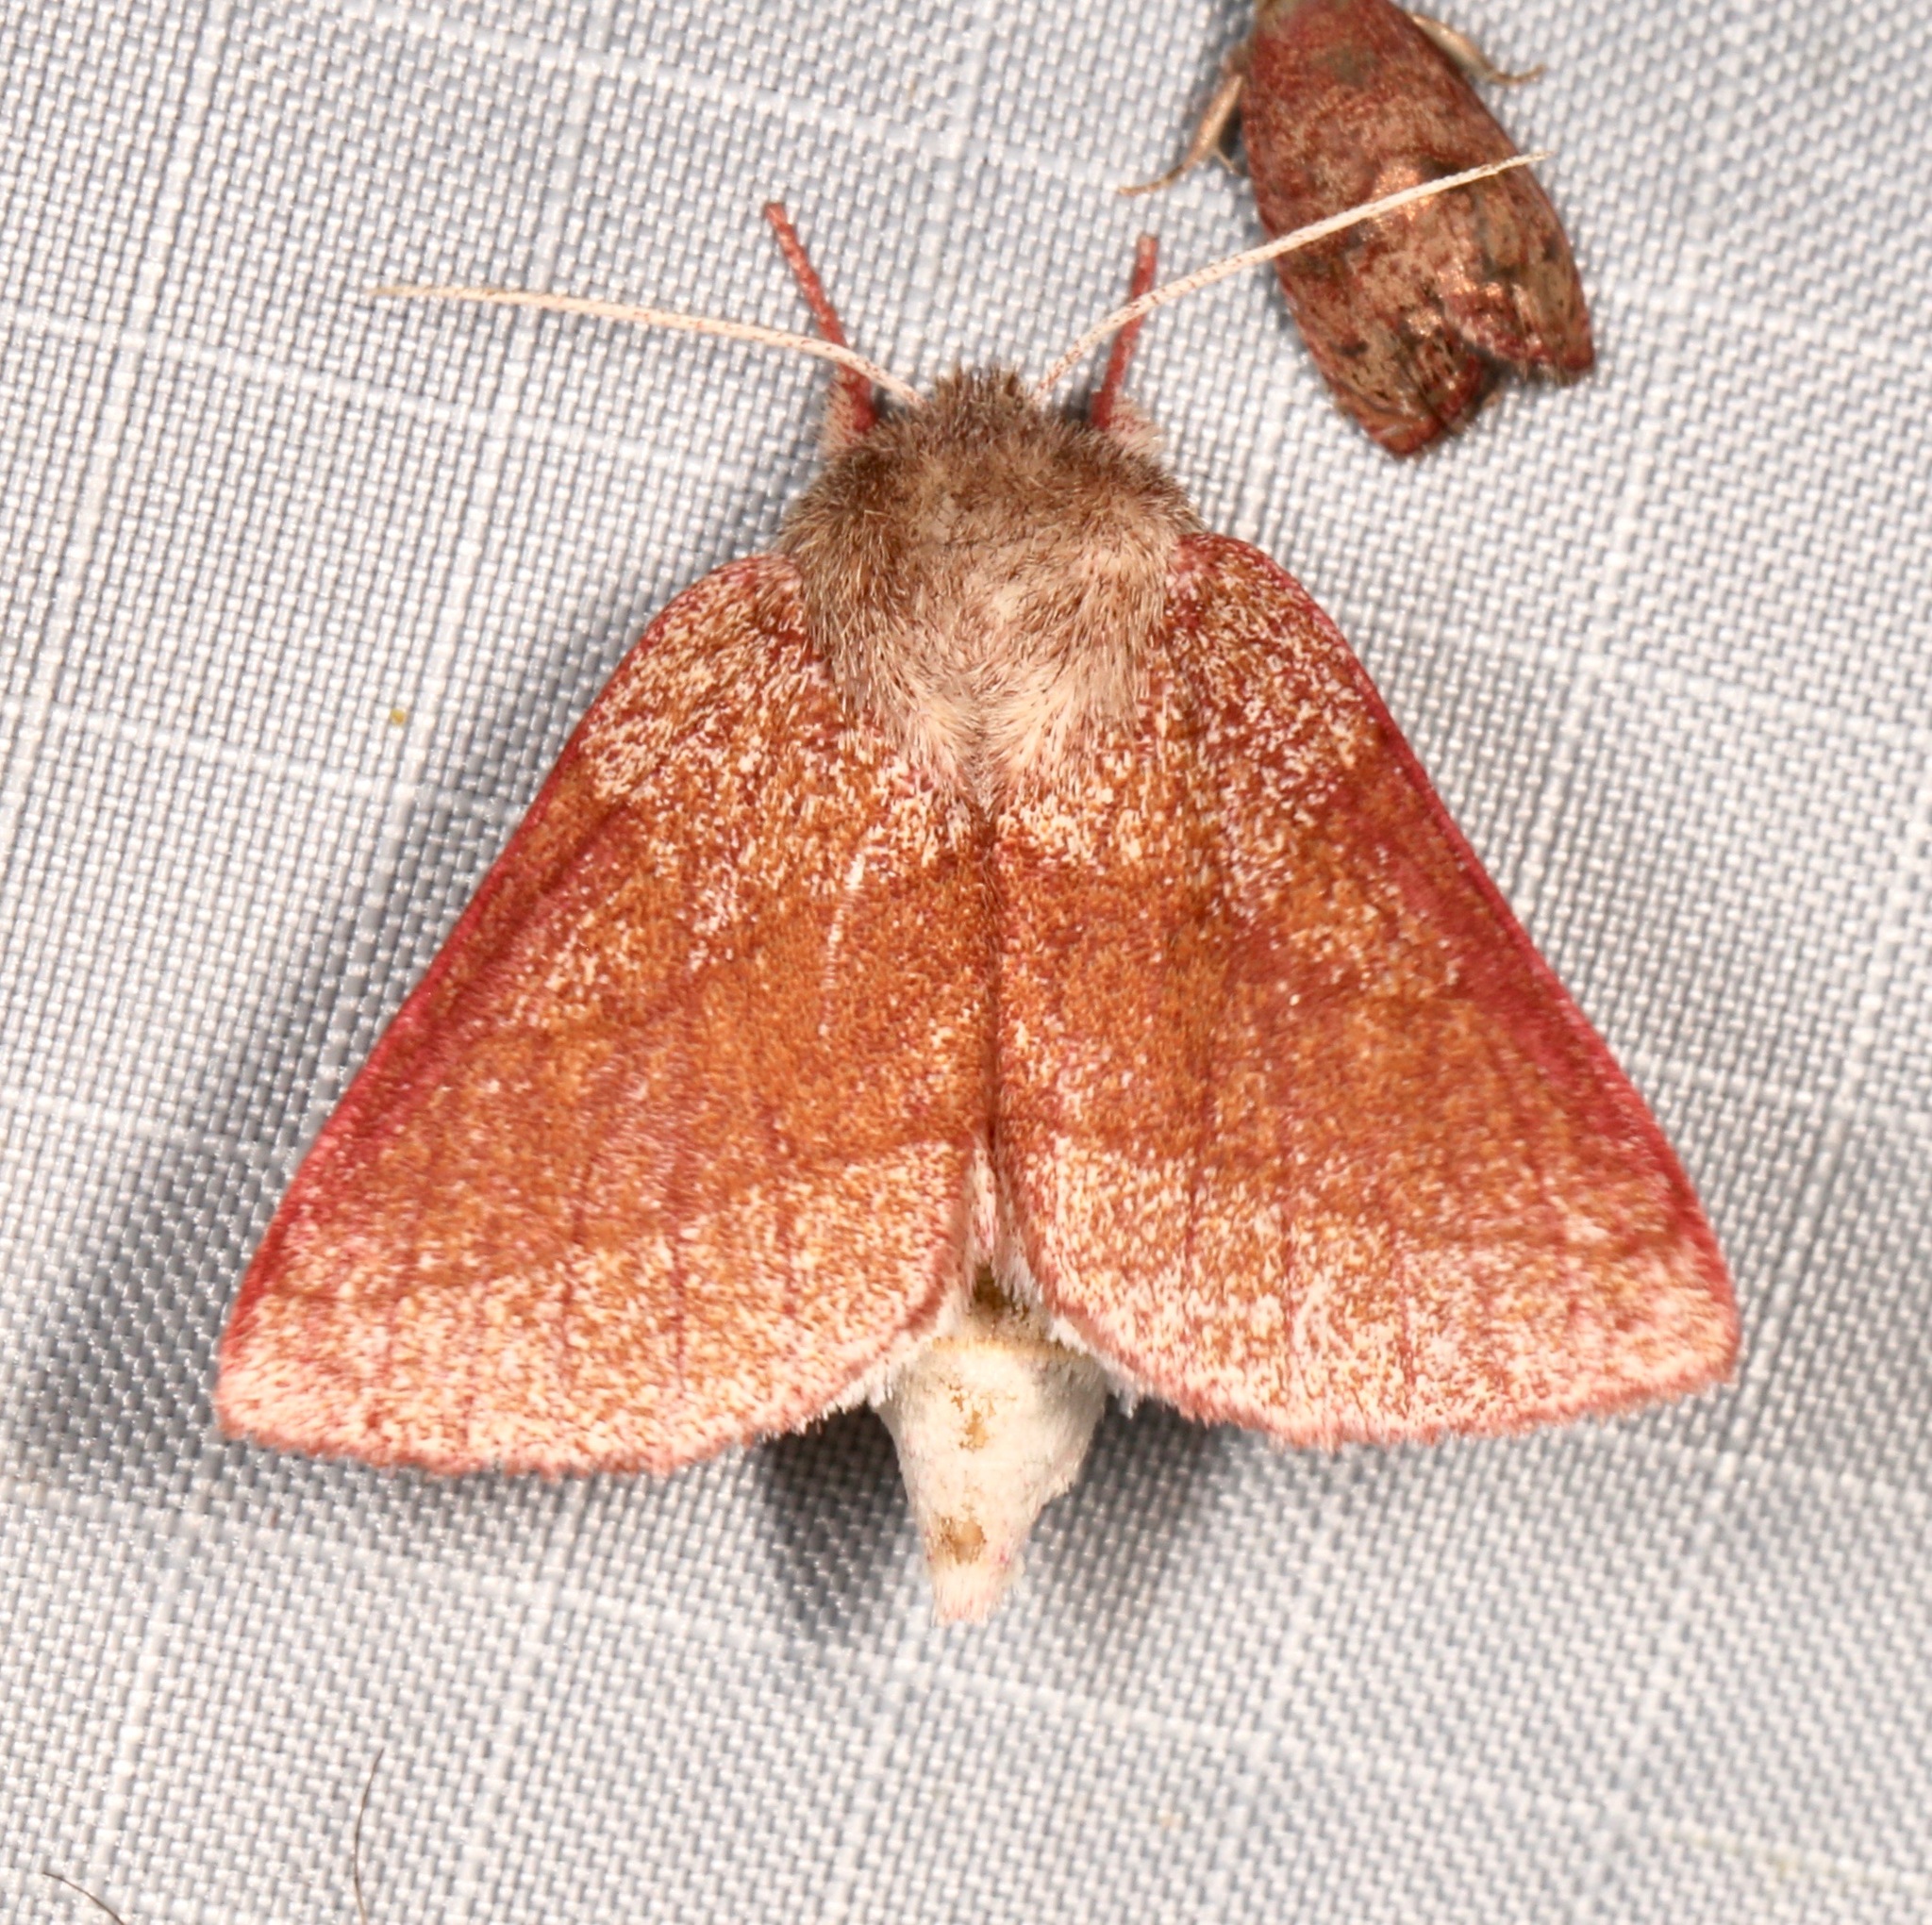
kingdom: Animalia
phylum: Arthropoda
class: Insecta
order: Lepidoptera
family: Notodontidae
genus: Hyparpax
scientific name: Hyparpax perophoroides
